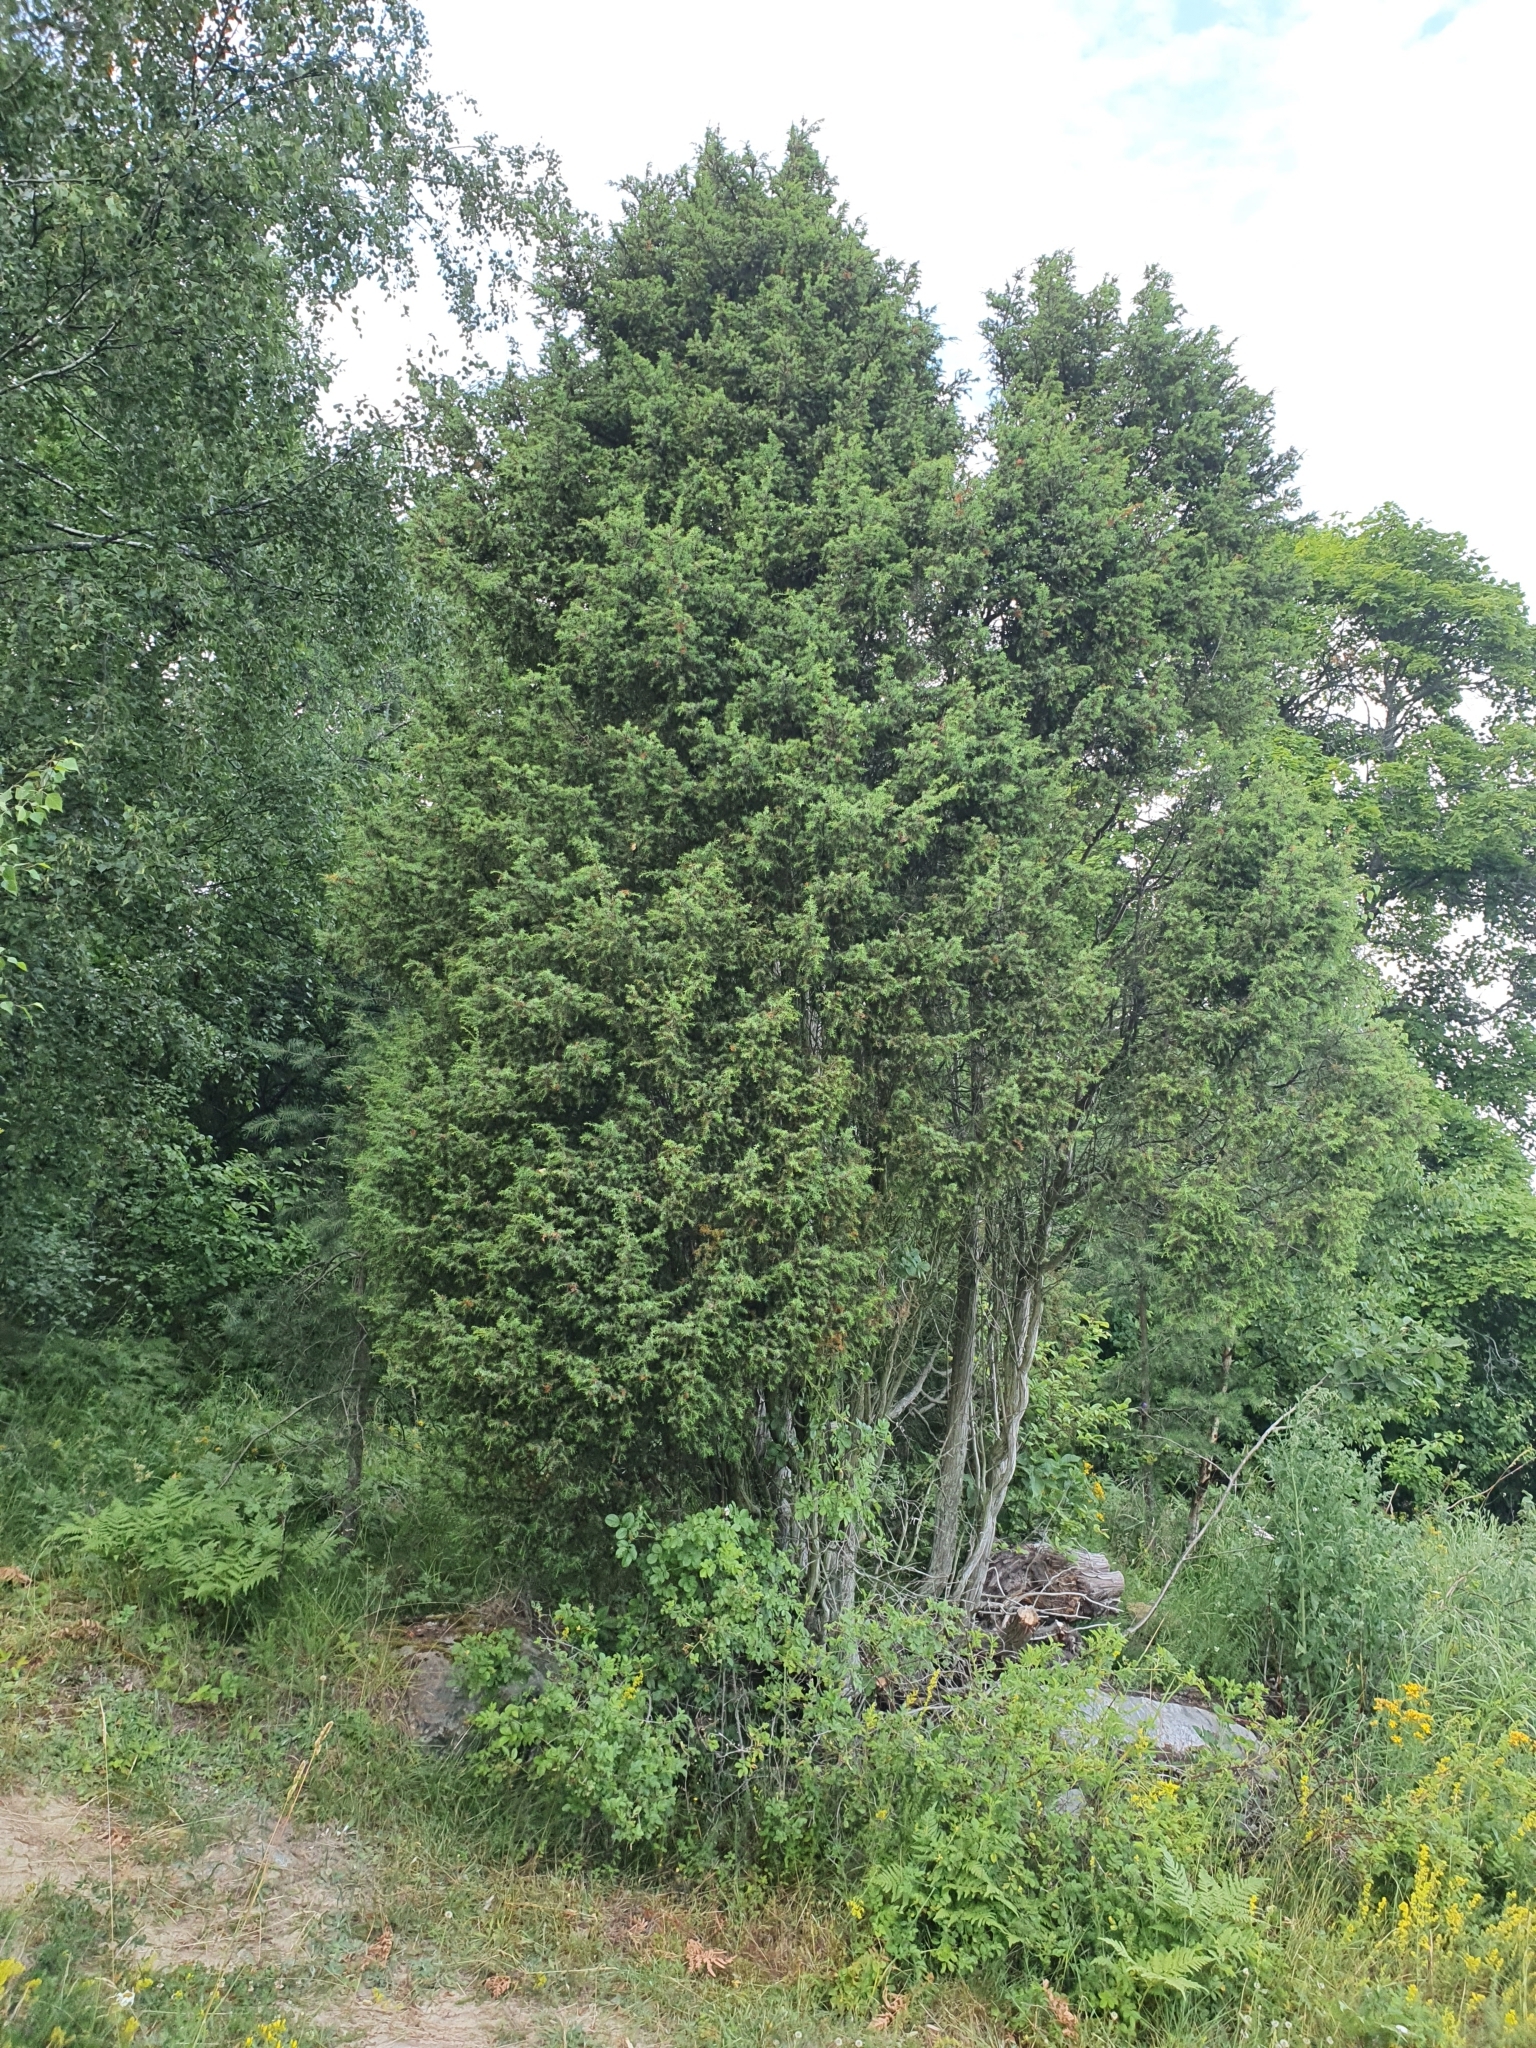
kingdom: Plantae
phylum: Tracheophyta
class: Pinopsida
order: Pinales
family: Cupressaceae
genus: Juniperus
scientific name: Juniperus communis
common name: Common juniper
